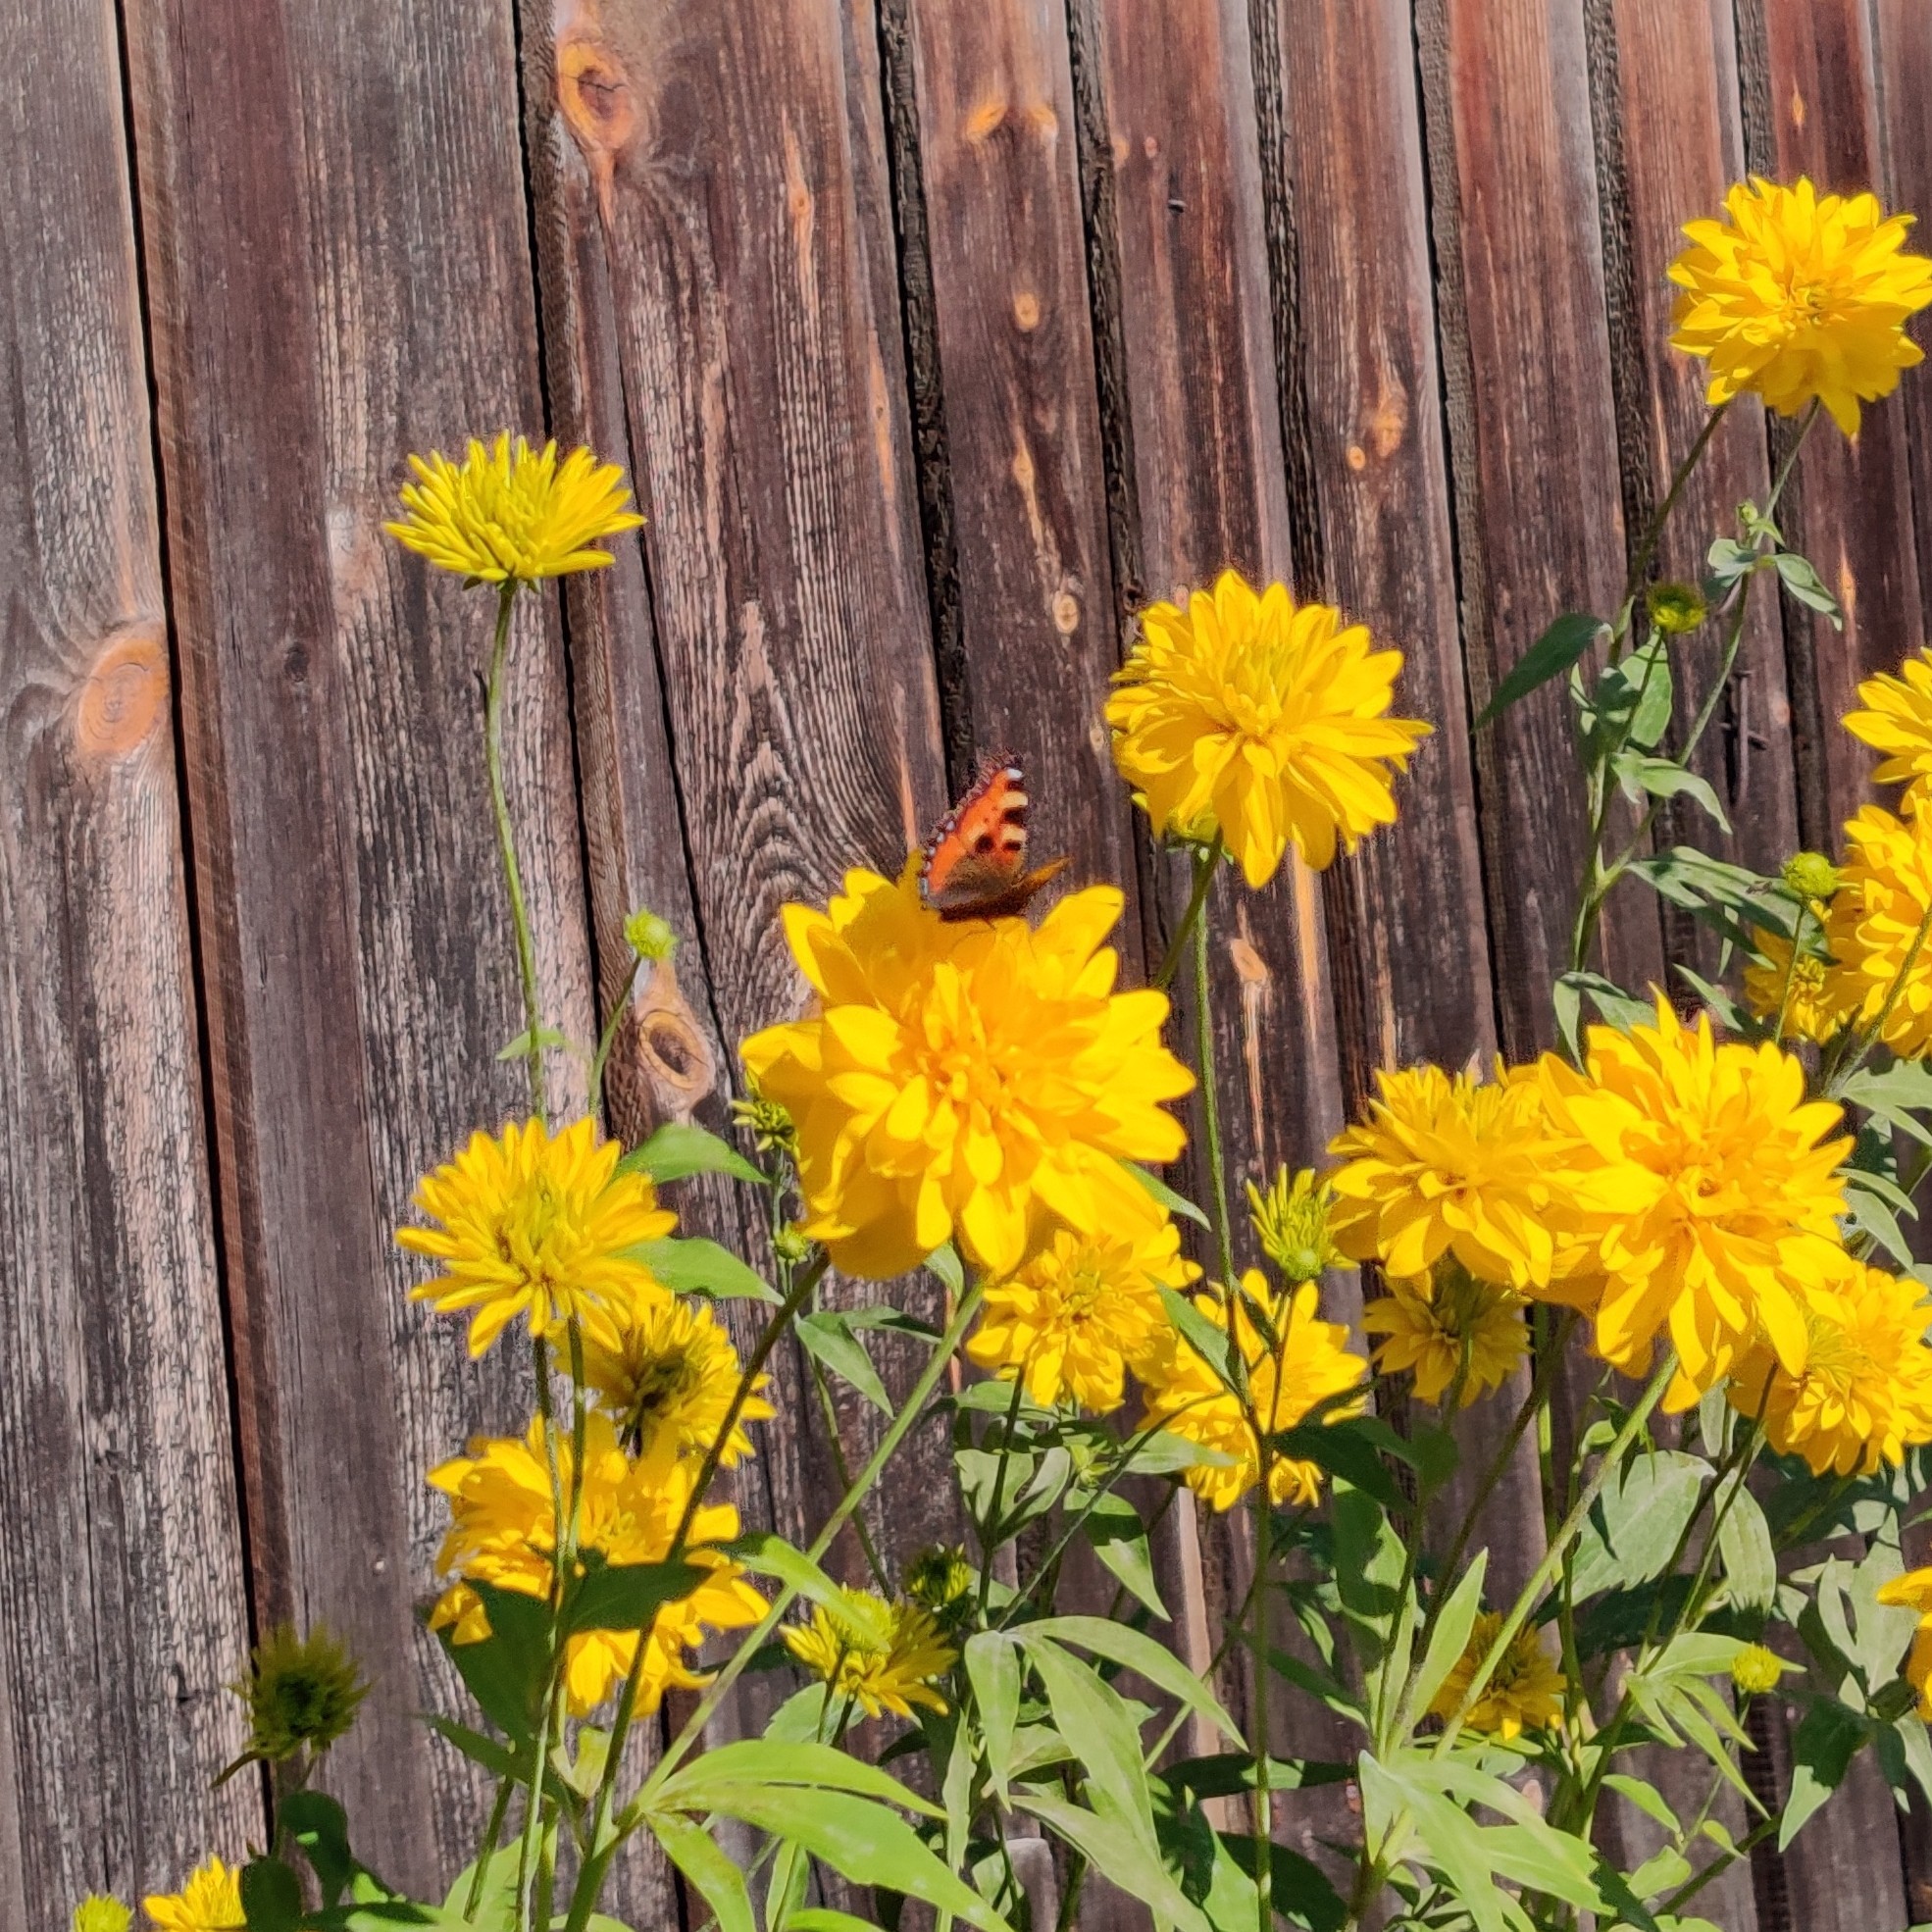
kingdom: Animalia
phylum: Arthropoda
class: Insecta
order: Lepidoptera
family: Nymphalidae
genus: Aglais
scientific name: Aglais urticae
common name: Small tortoiseshell
